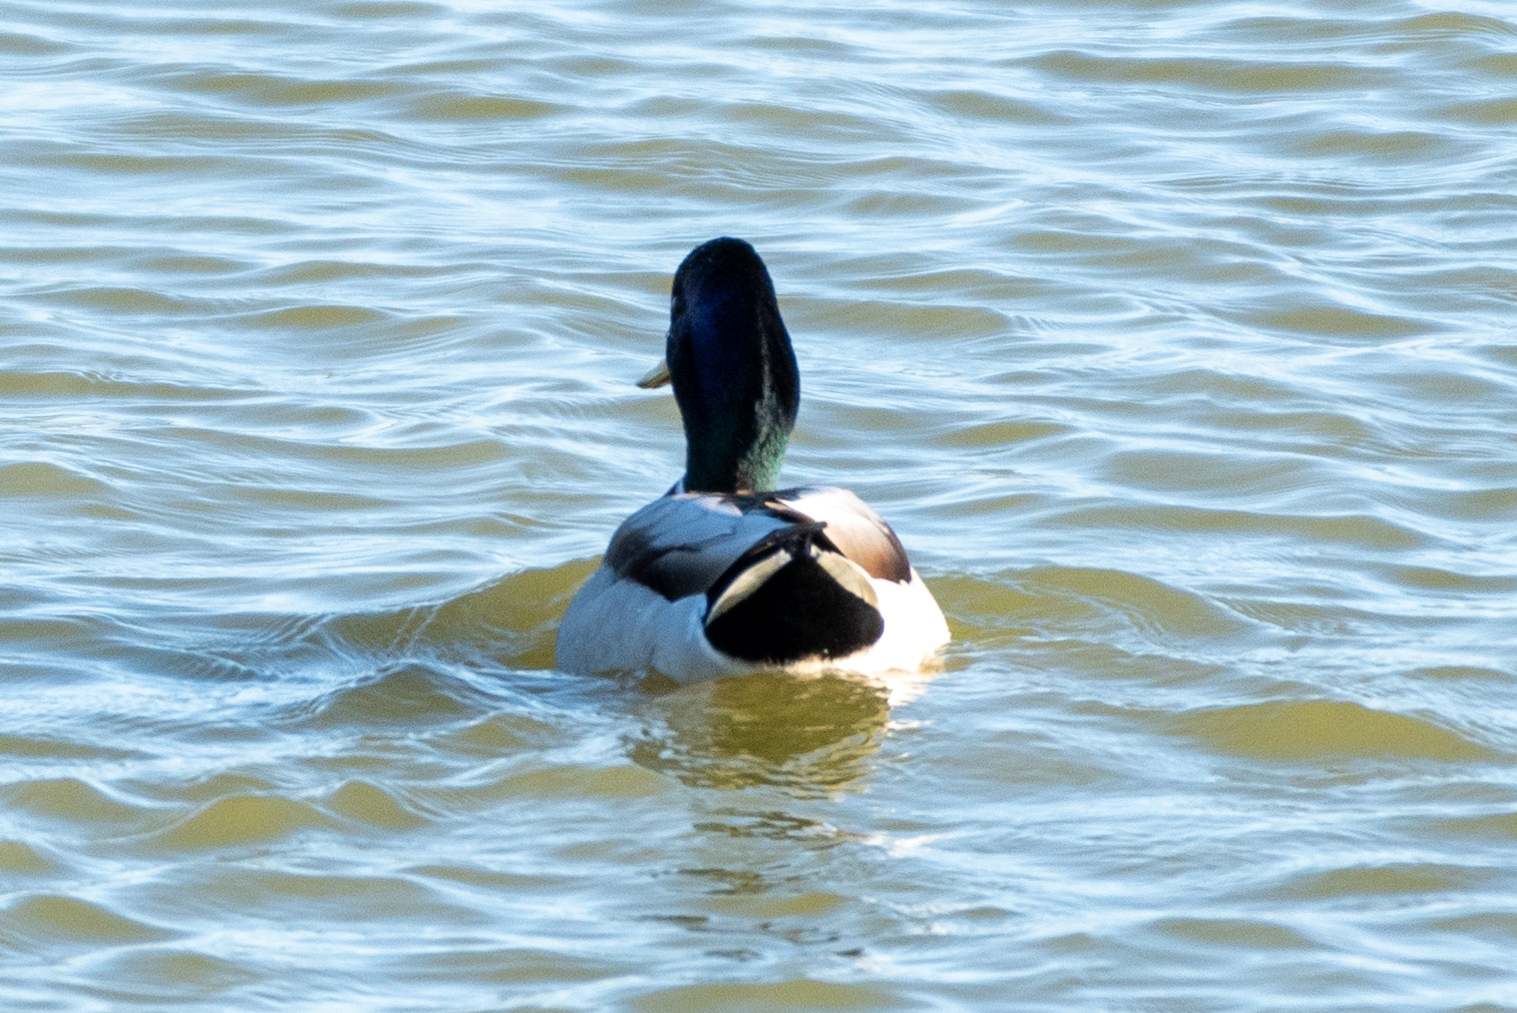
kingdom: Animalia
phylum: Chordata
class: Aves
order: Anseriformes
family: Anatidae
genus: Anas
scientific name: Anas platyrhynchos
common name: Mallard
